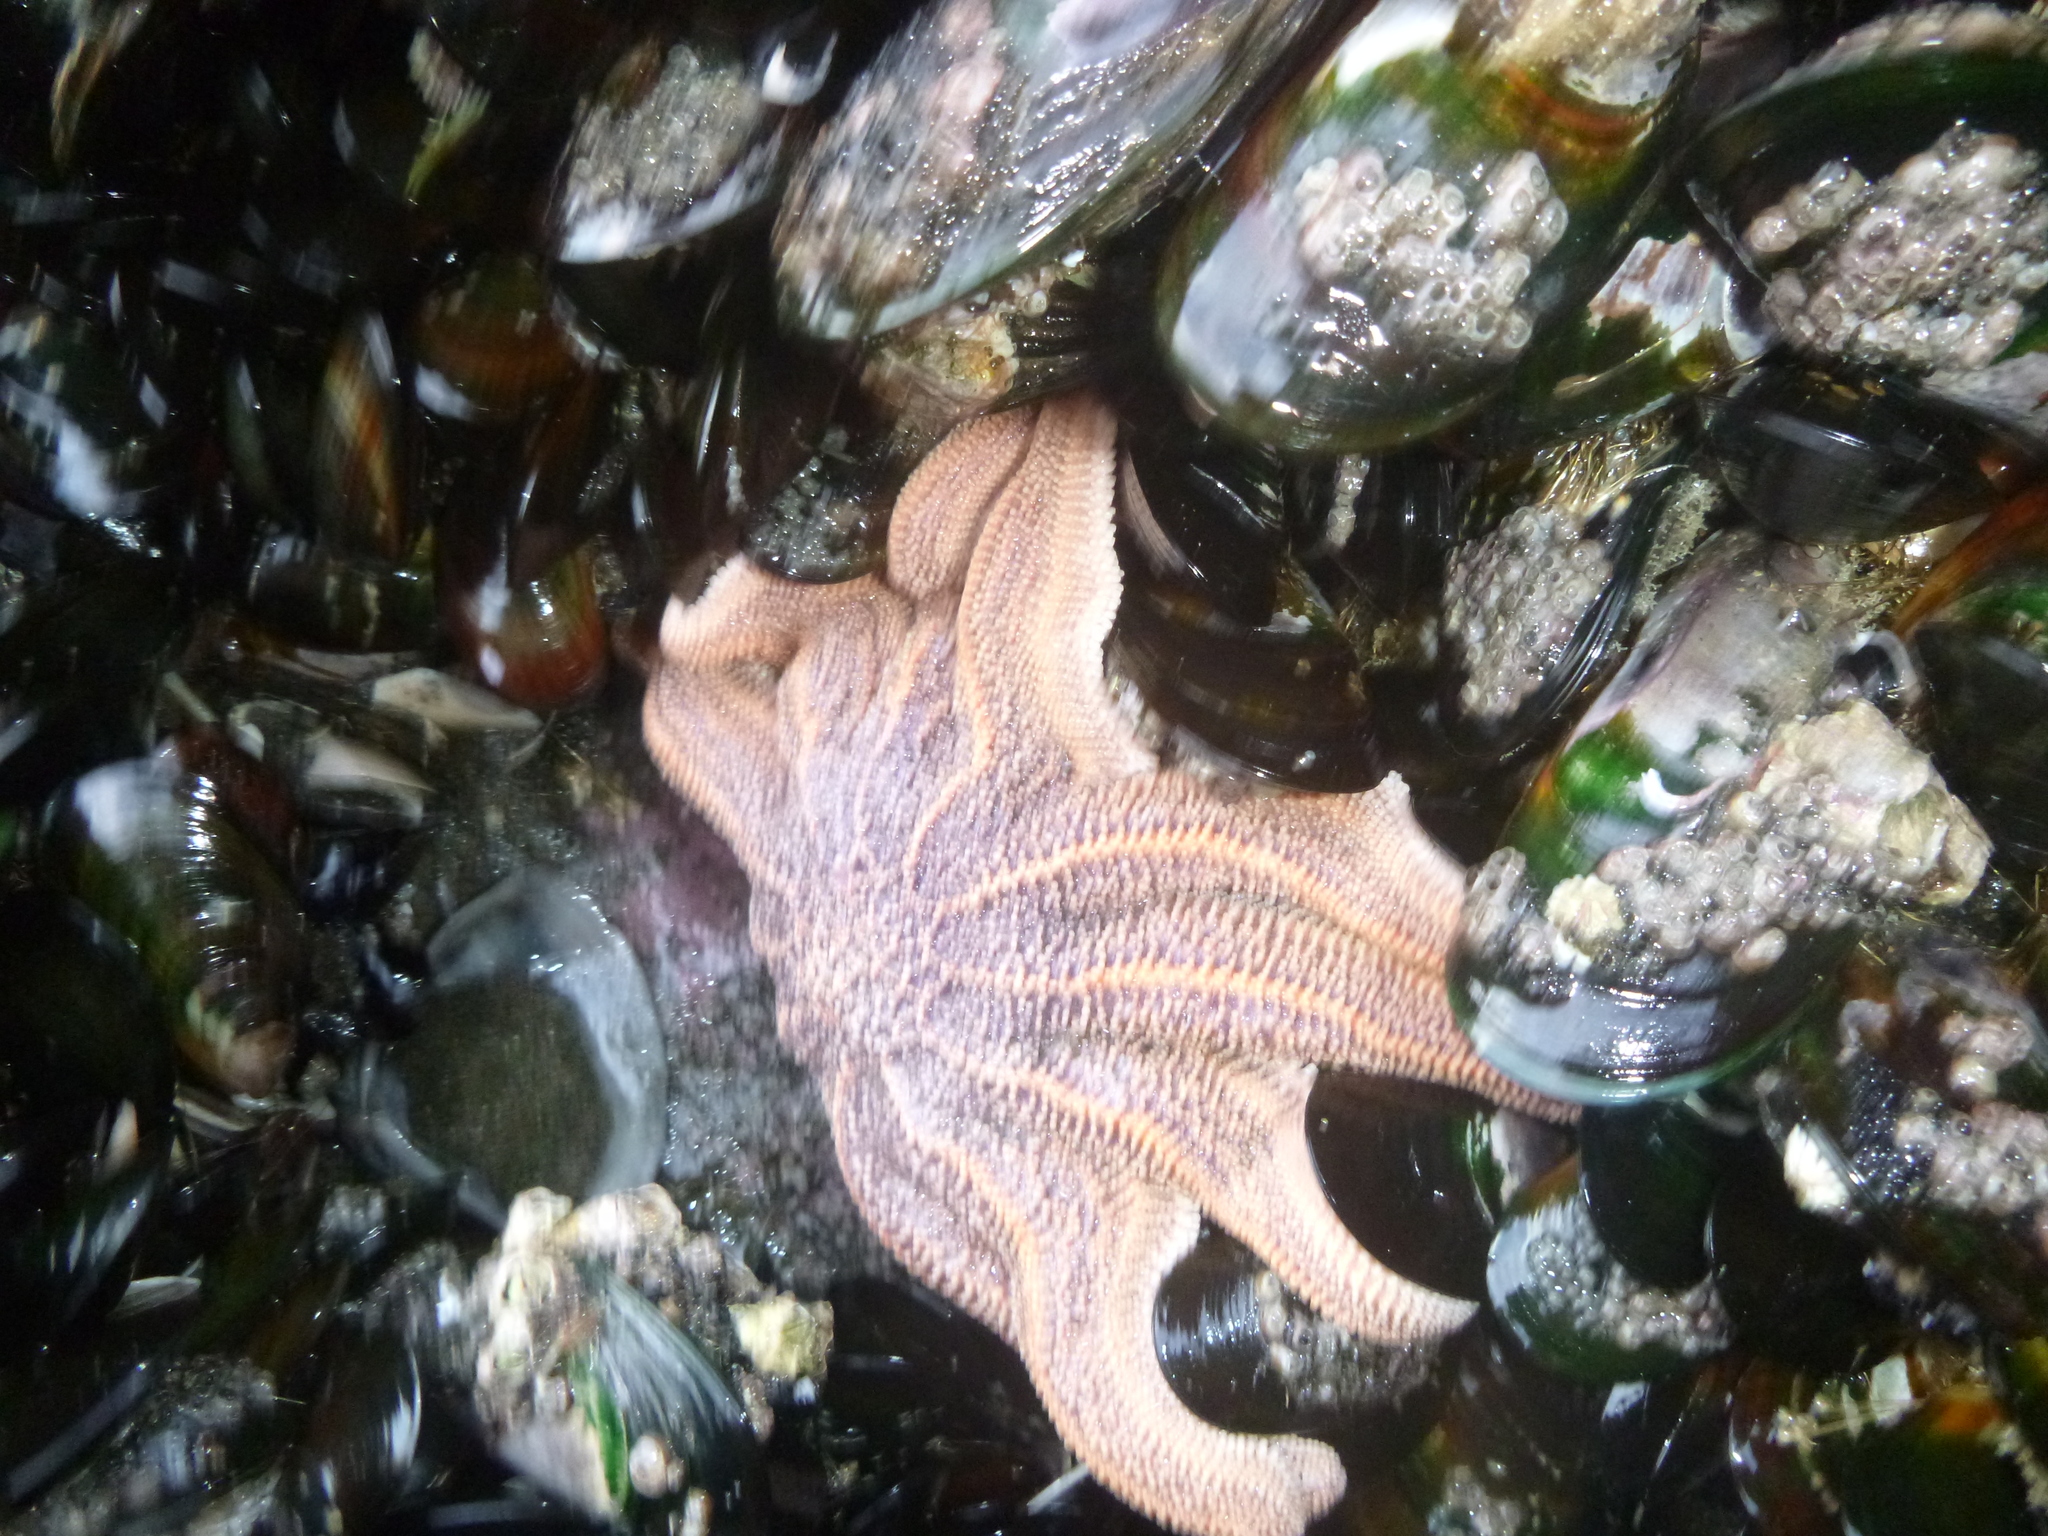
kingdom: Animalia
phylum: Echinodermata
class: Asteroidea
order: Forcipulatida
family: Stichasteridae
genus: Stichaster
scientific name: Stichaster australis
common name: Reef starfish
